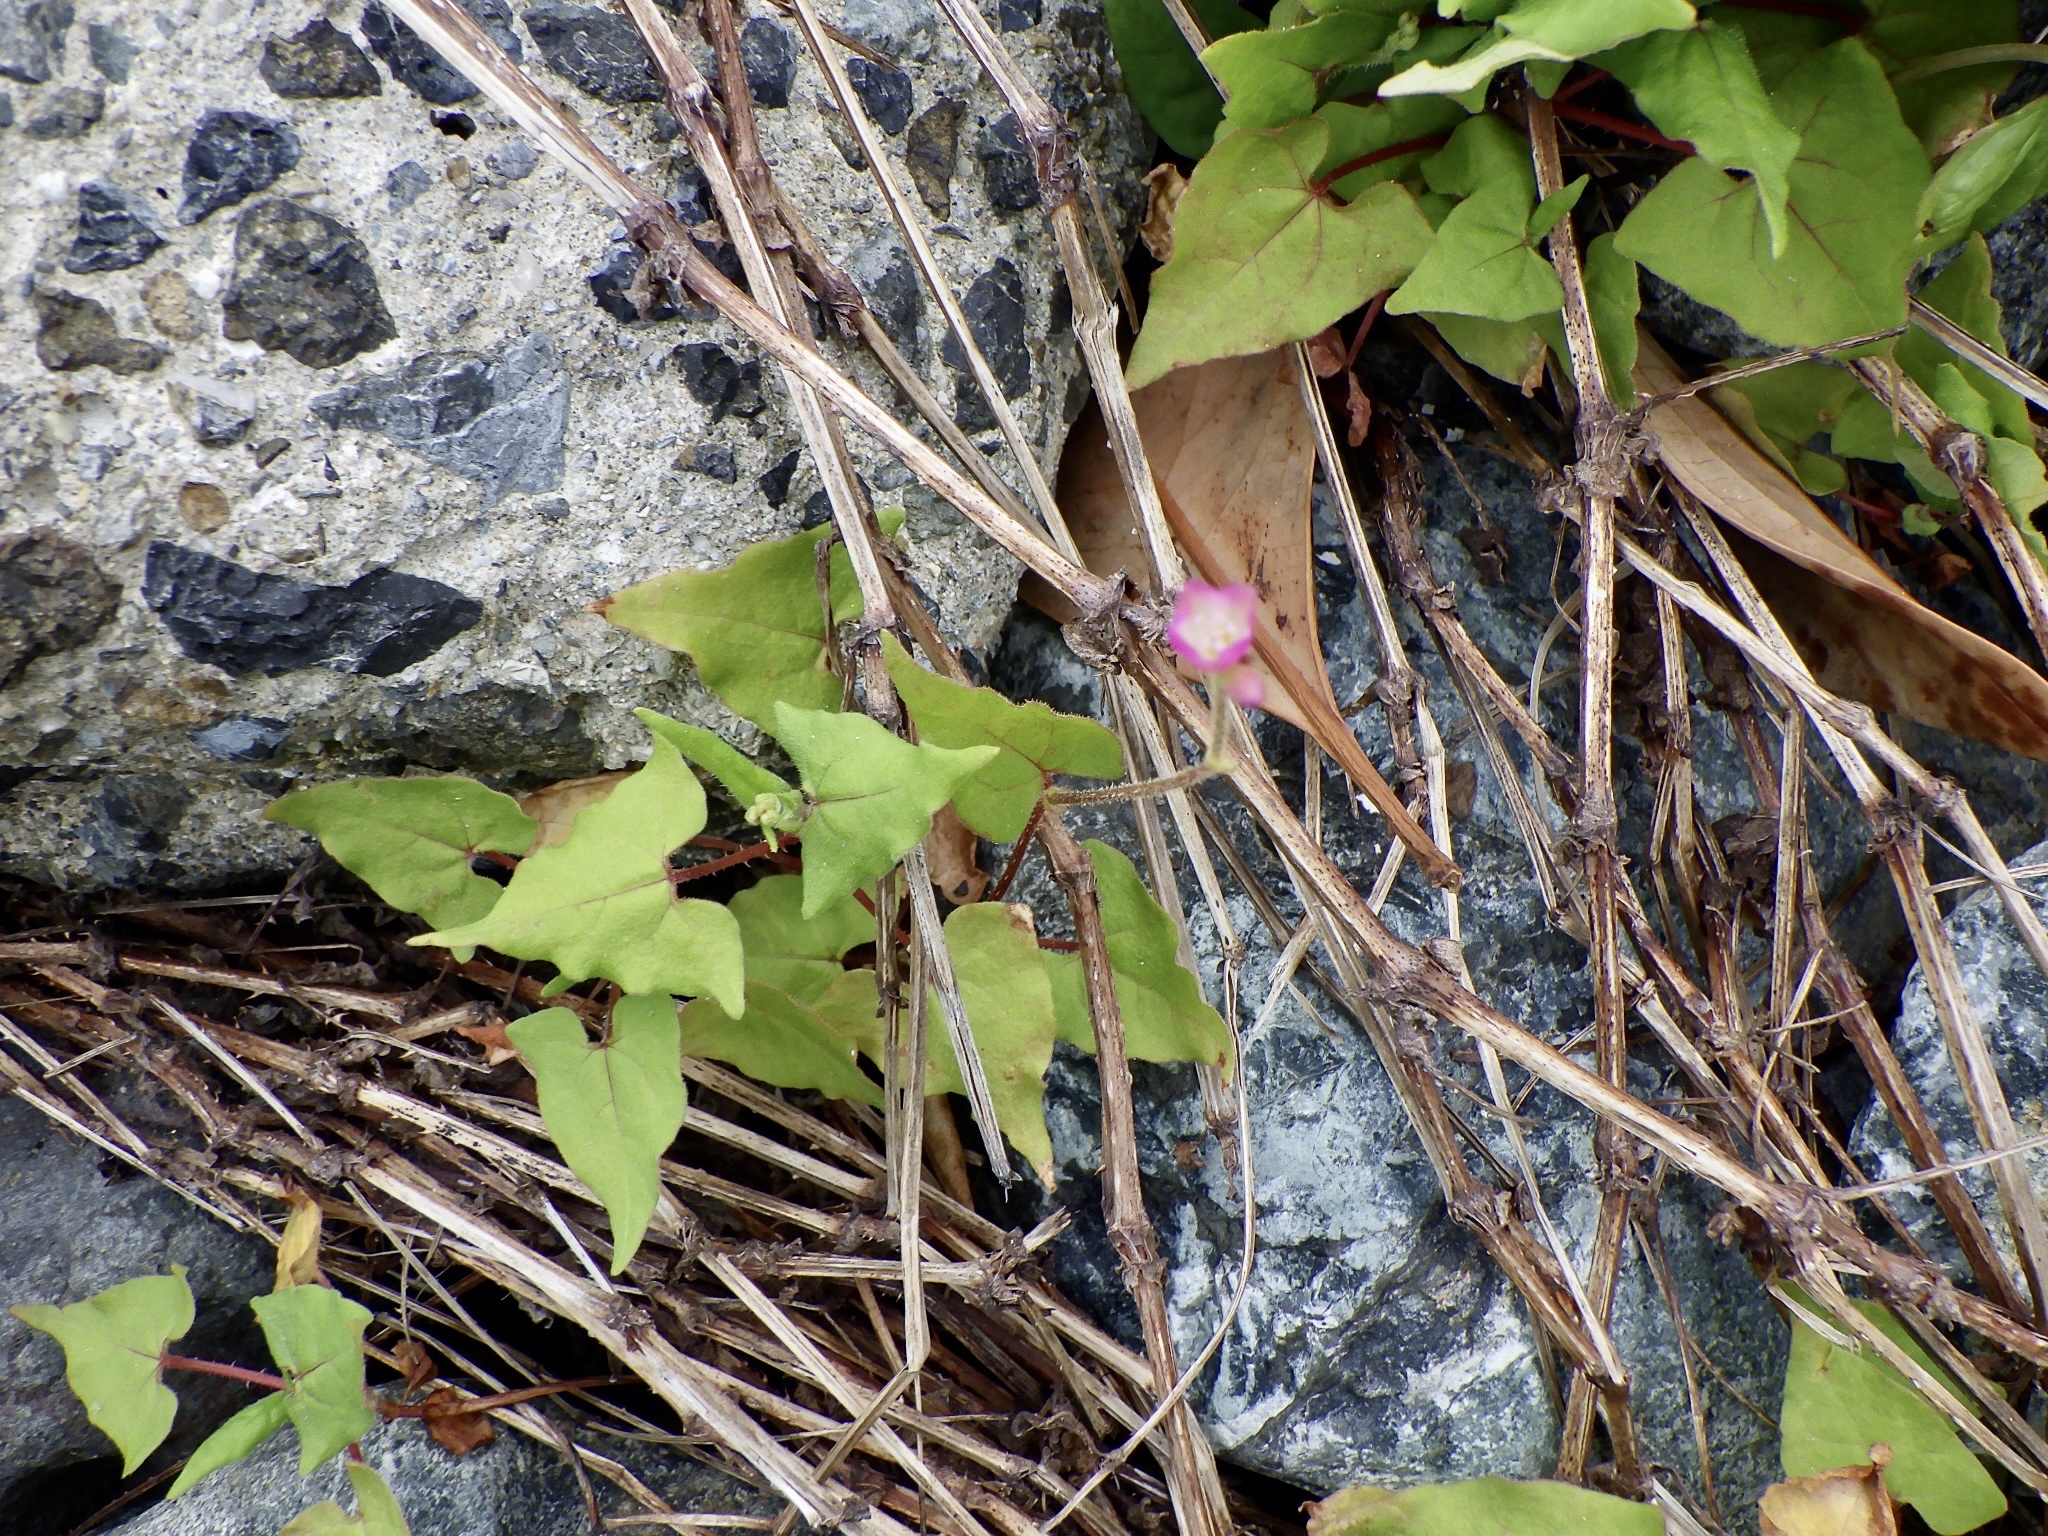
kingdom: Plantae
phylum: Tracheophyta
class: Magnoliopsida
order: Caryophyllales
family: Polygonaceae
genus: Persicaria
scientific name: Persicaria senticosa
